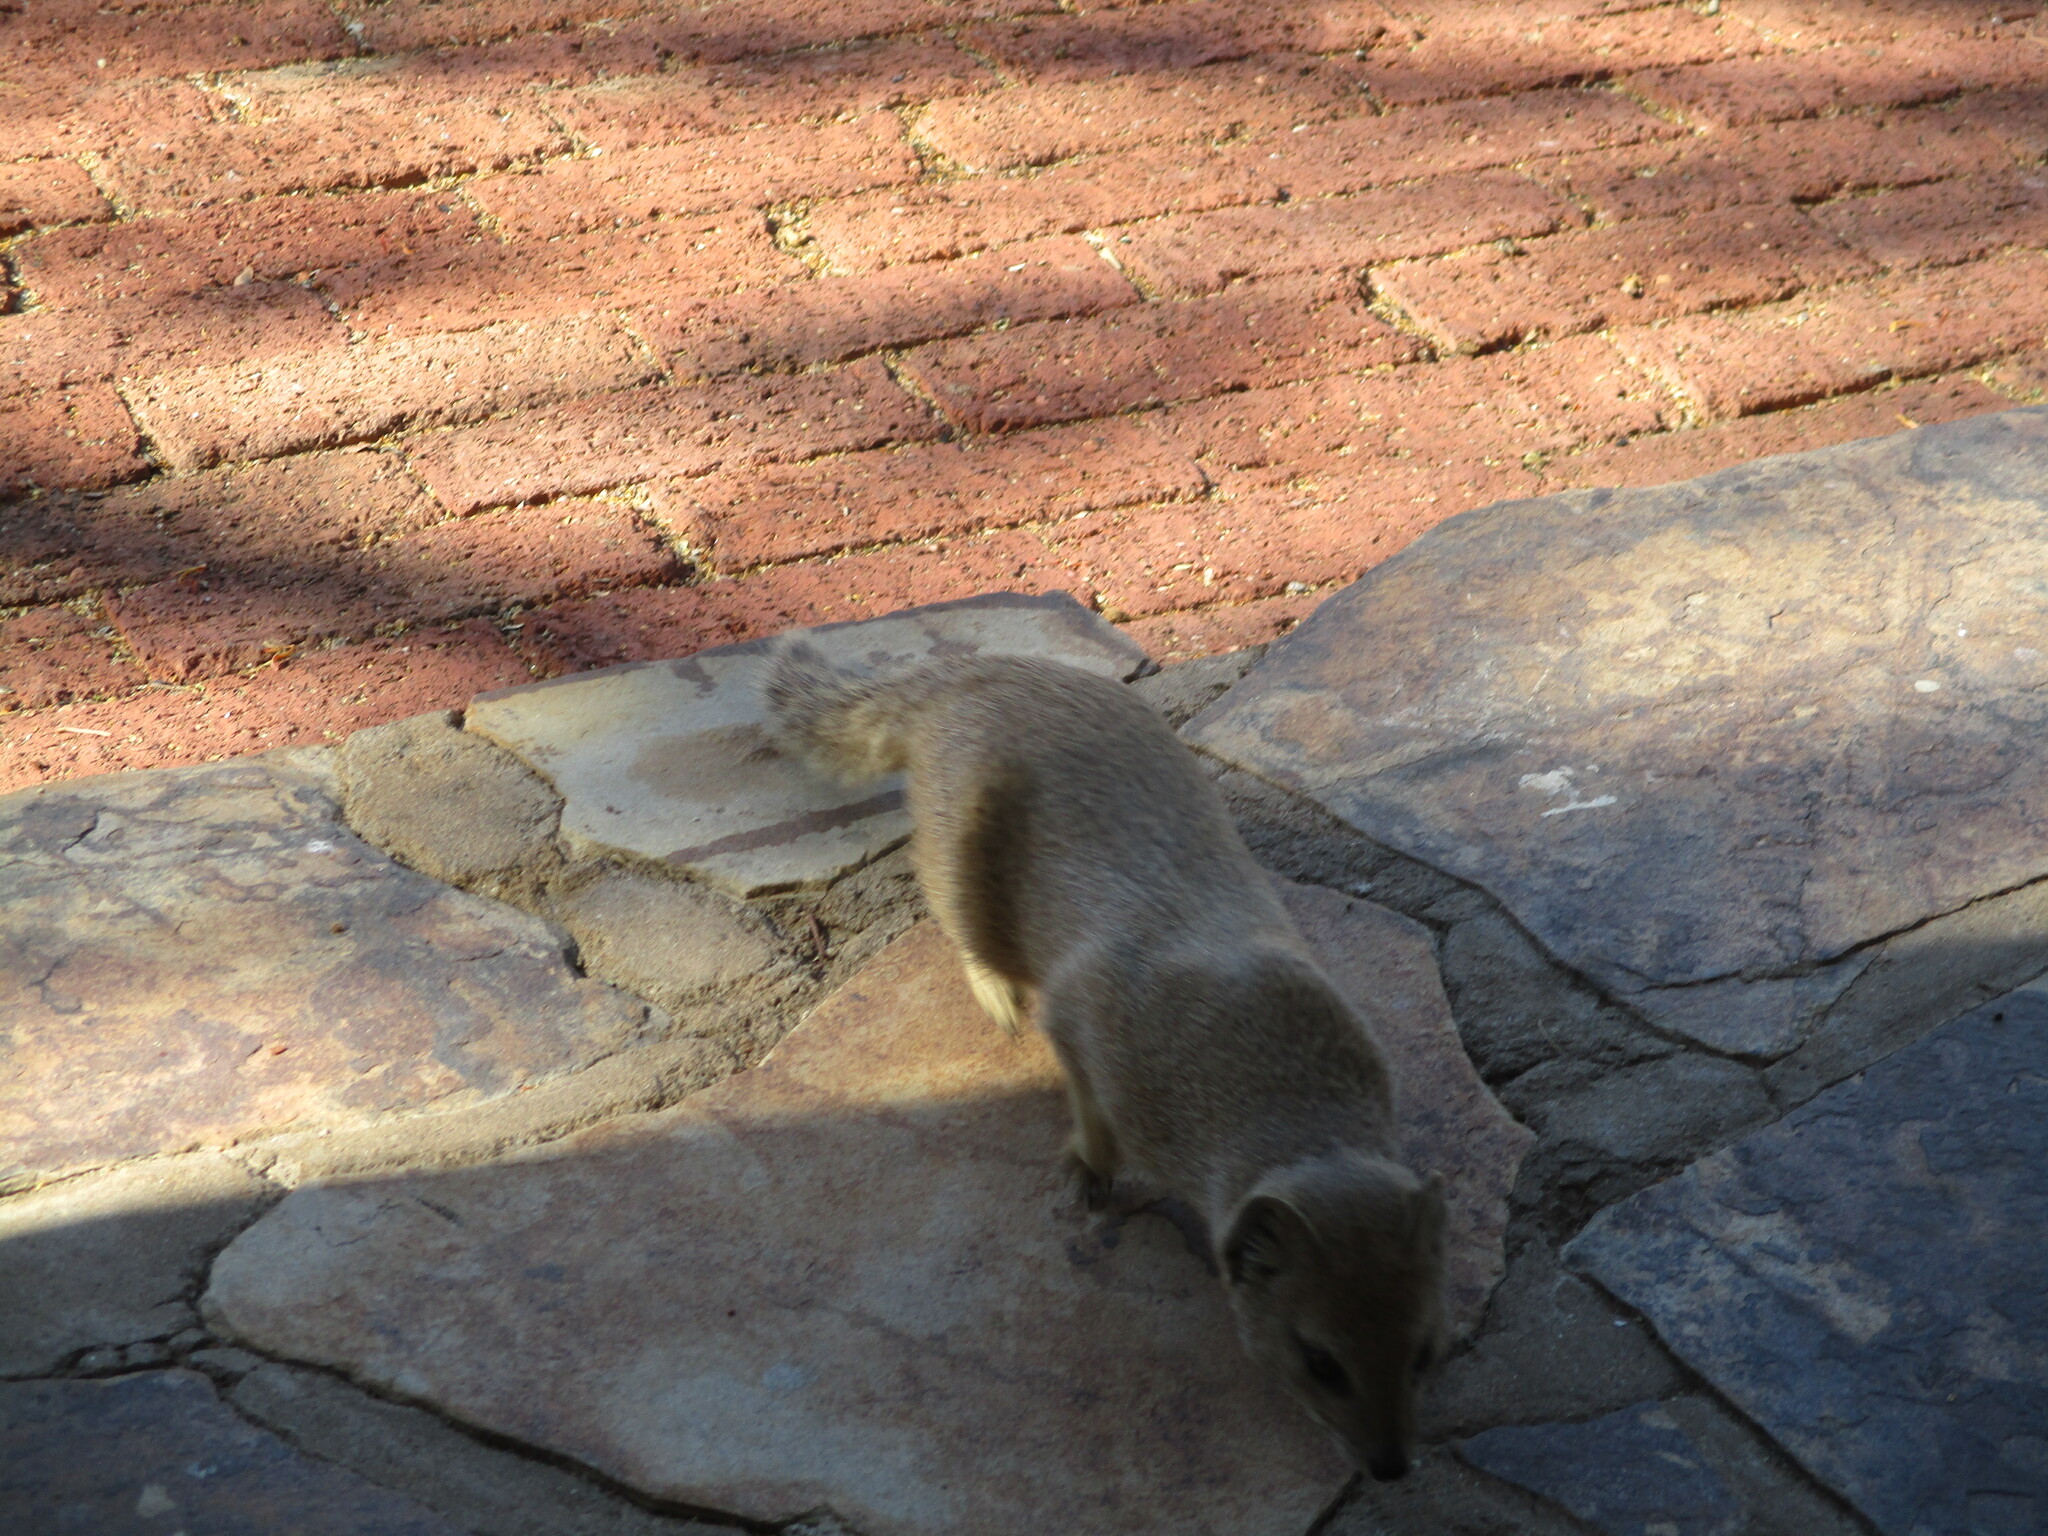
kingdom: Animalia
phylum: Chordata
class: Mammalia
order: Carnivora
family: Herpestidae
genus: Cynictis
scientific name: Cynictis penicillata
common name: Yellow mongoose
